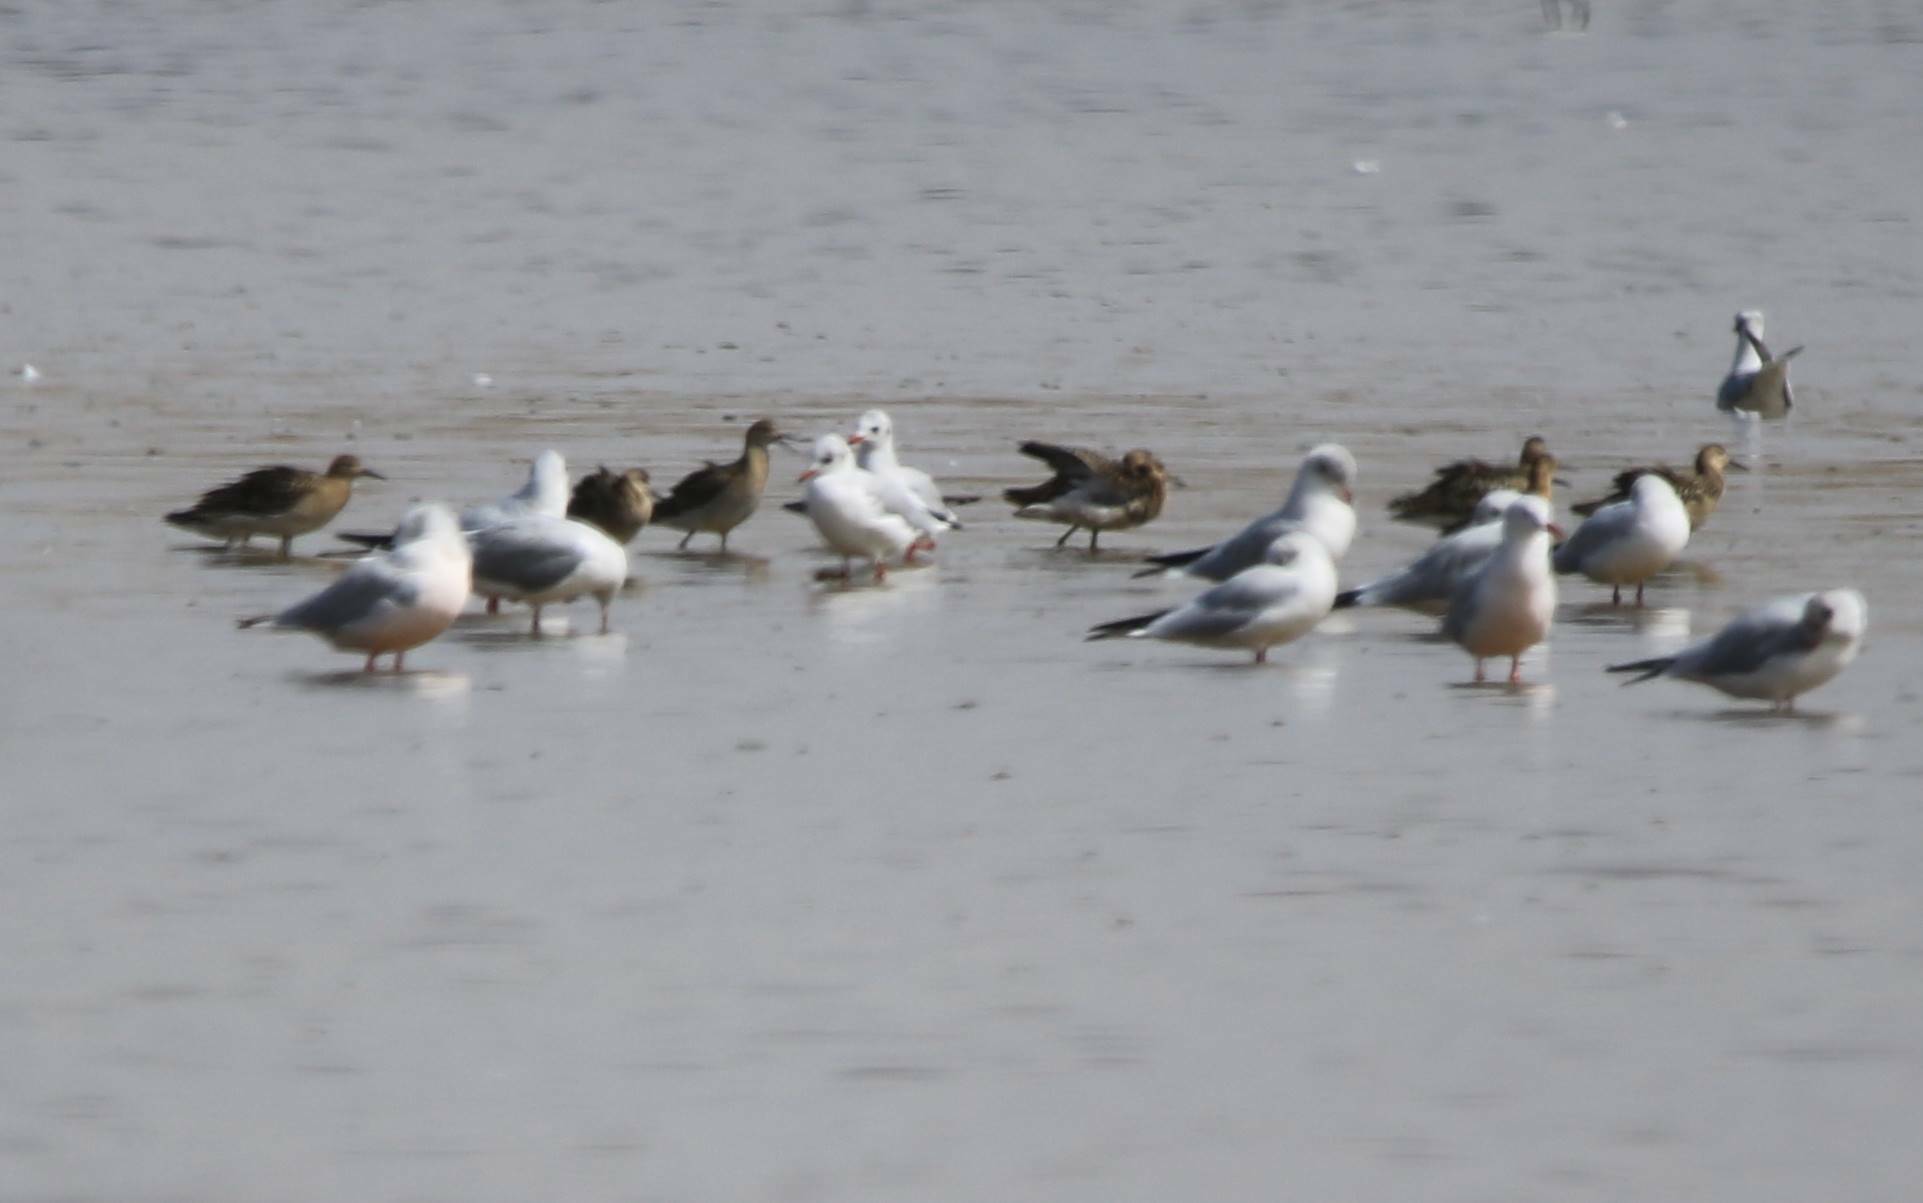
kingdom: Animalia
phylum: Chordata
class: Aves
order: Charadriiformes
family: Laridae
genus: Chroicocephalus
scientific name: Chroicocephalus ridibundus
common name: Black-headed gull
